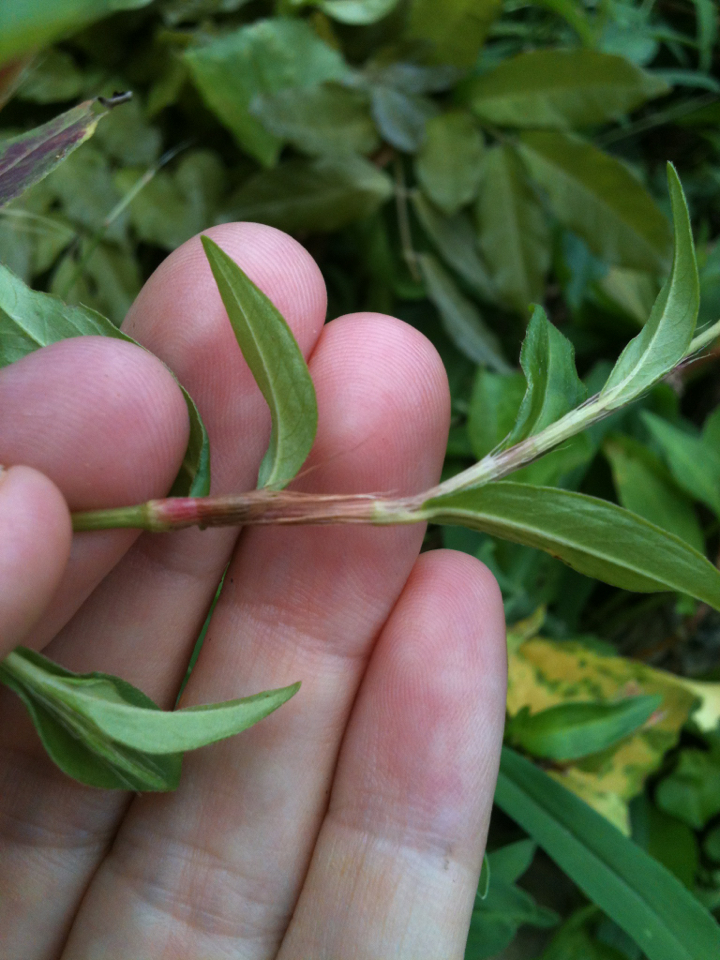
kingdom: Plantae
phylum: Tracheophyta
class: Magnoliopsida
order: Caryophyllales
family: Polygonaceae
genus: Persicaria
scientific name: Persicaria longiseta
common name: Bristly lady's-thumb
